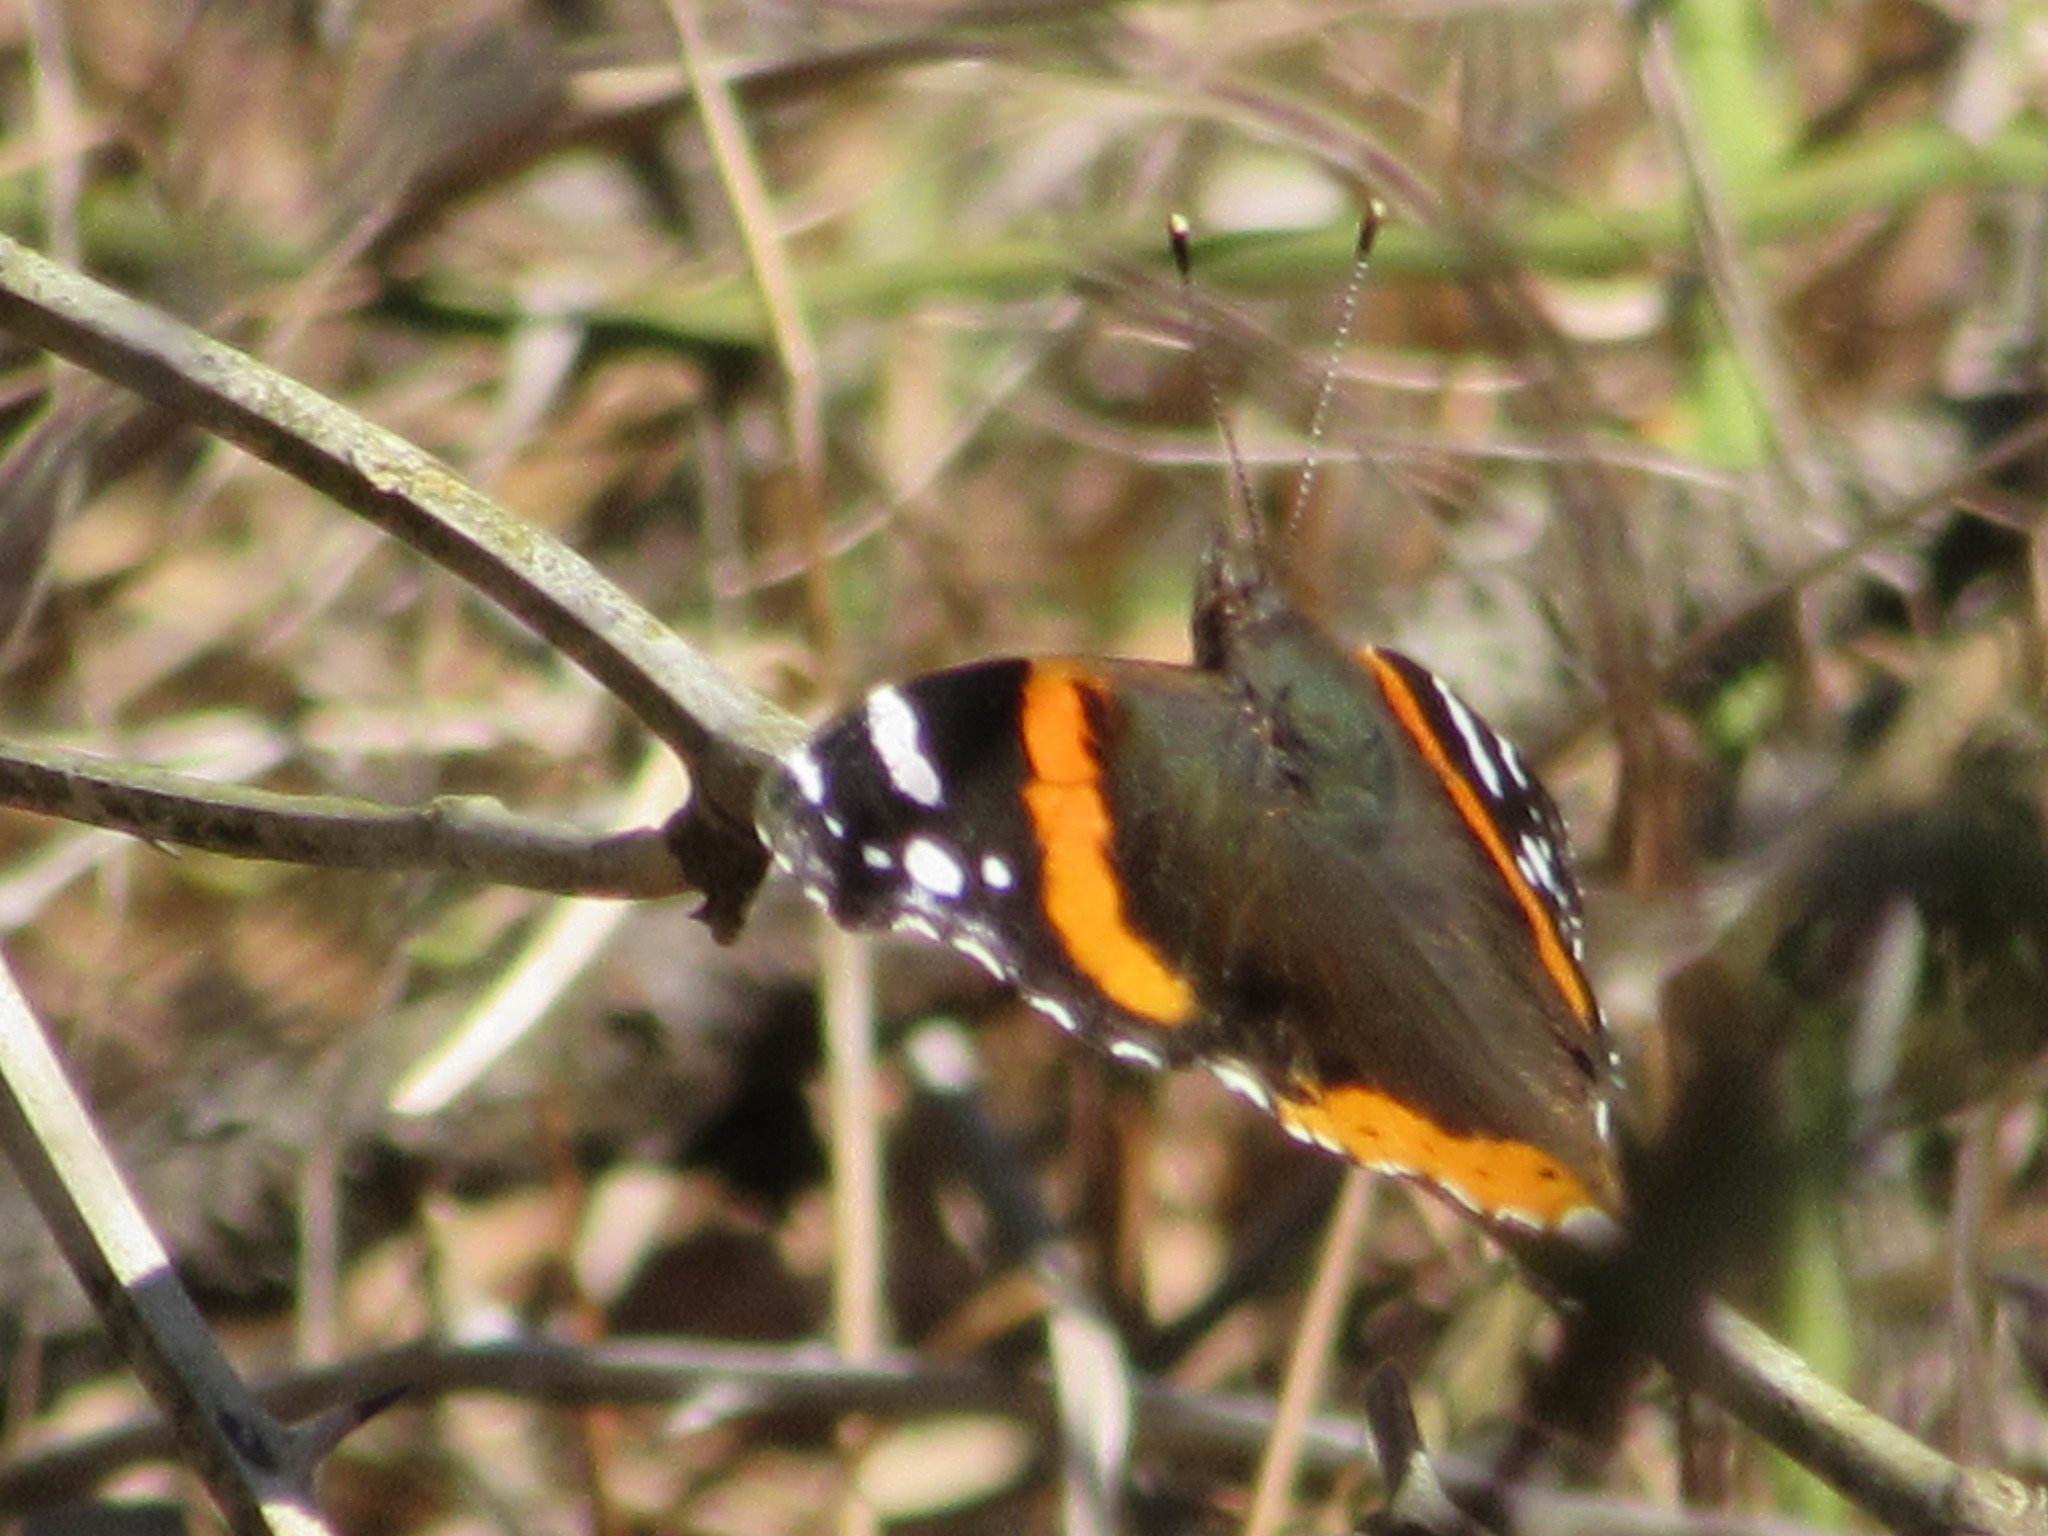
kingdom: Animalia
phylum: Arthropoda
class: Insecta
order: Lepidoptera
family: Nymphalidae
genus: Vanessa
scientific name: Vanessa atalanta
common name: Red admiral
